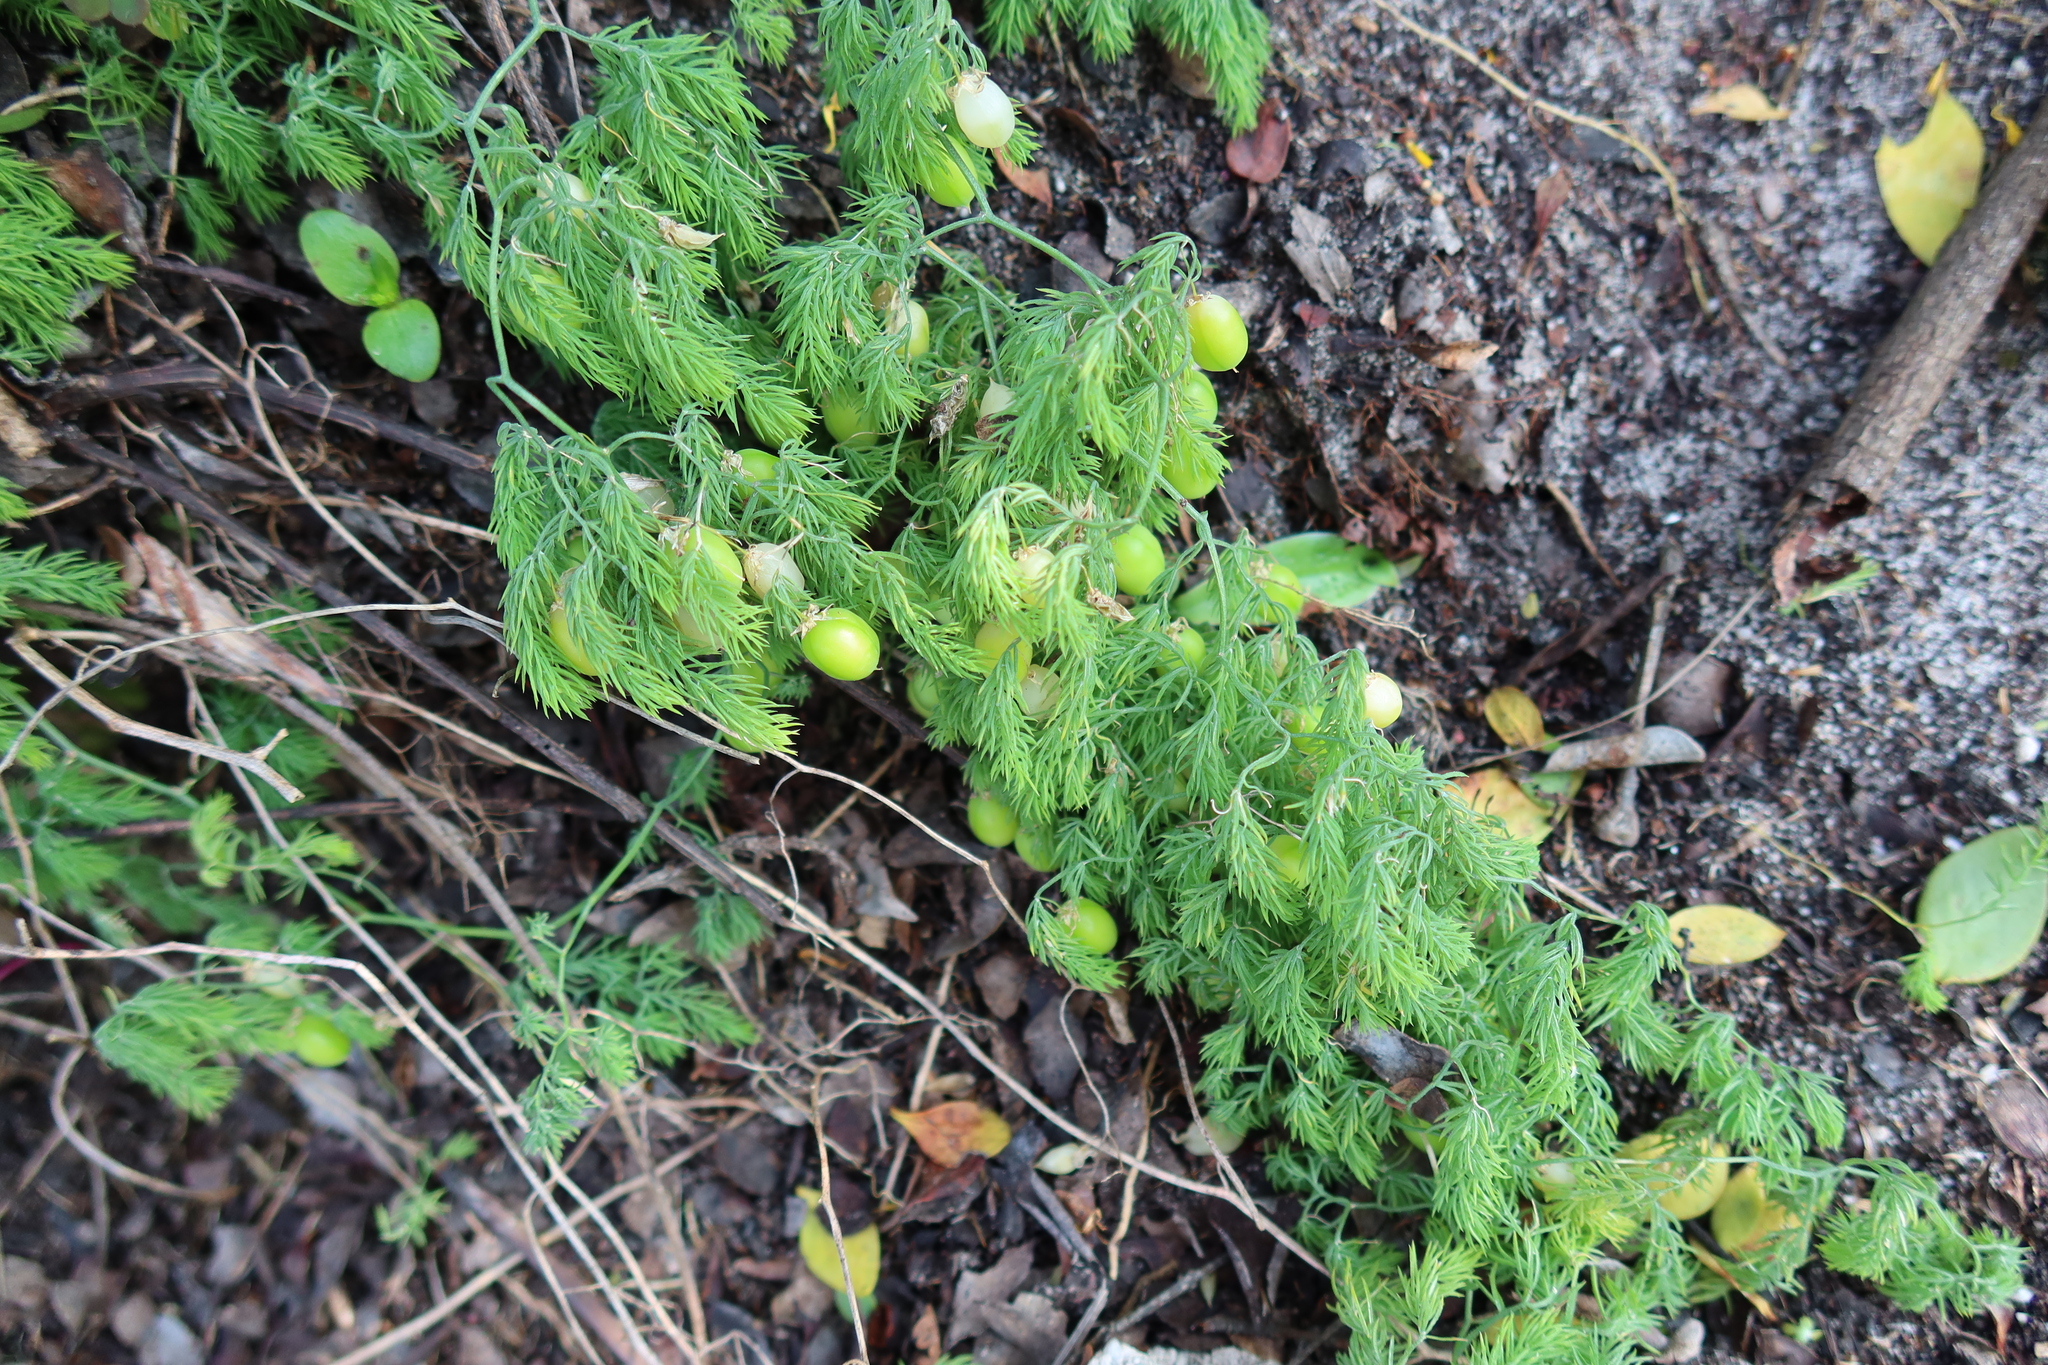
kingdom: Plantae
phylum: Tracheophyta
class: Liliopsida
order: Asparagales
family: Asparagaceae
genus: Asparagus
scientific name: Asparagus declinatus
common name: Bridal-creeper
